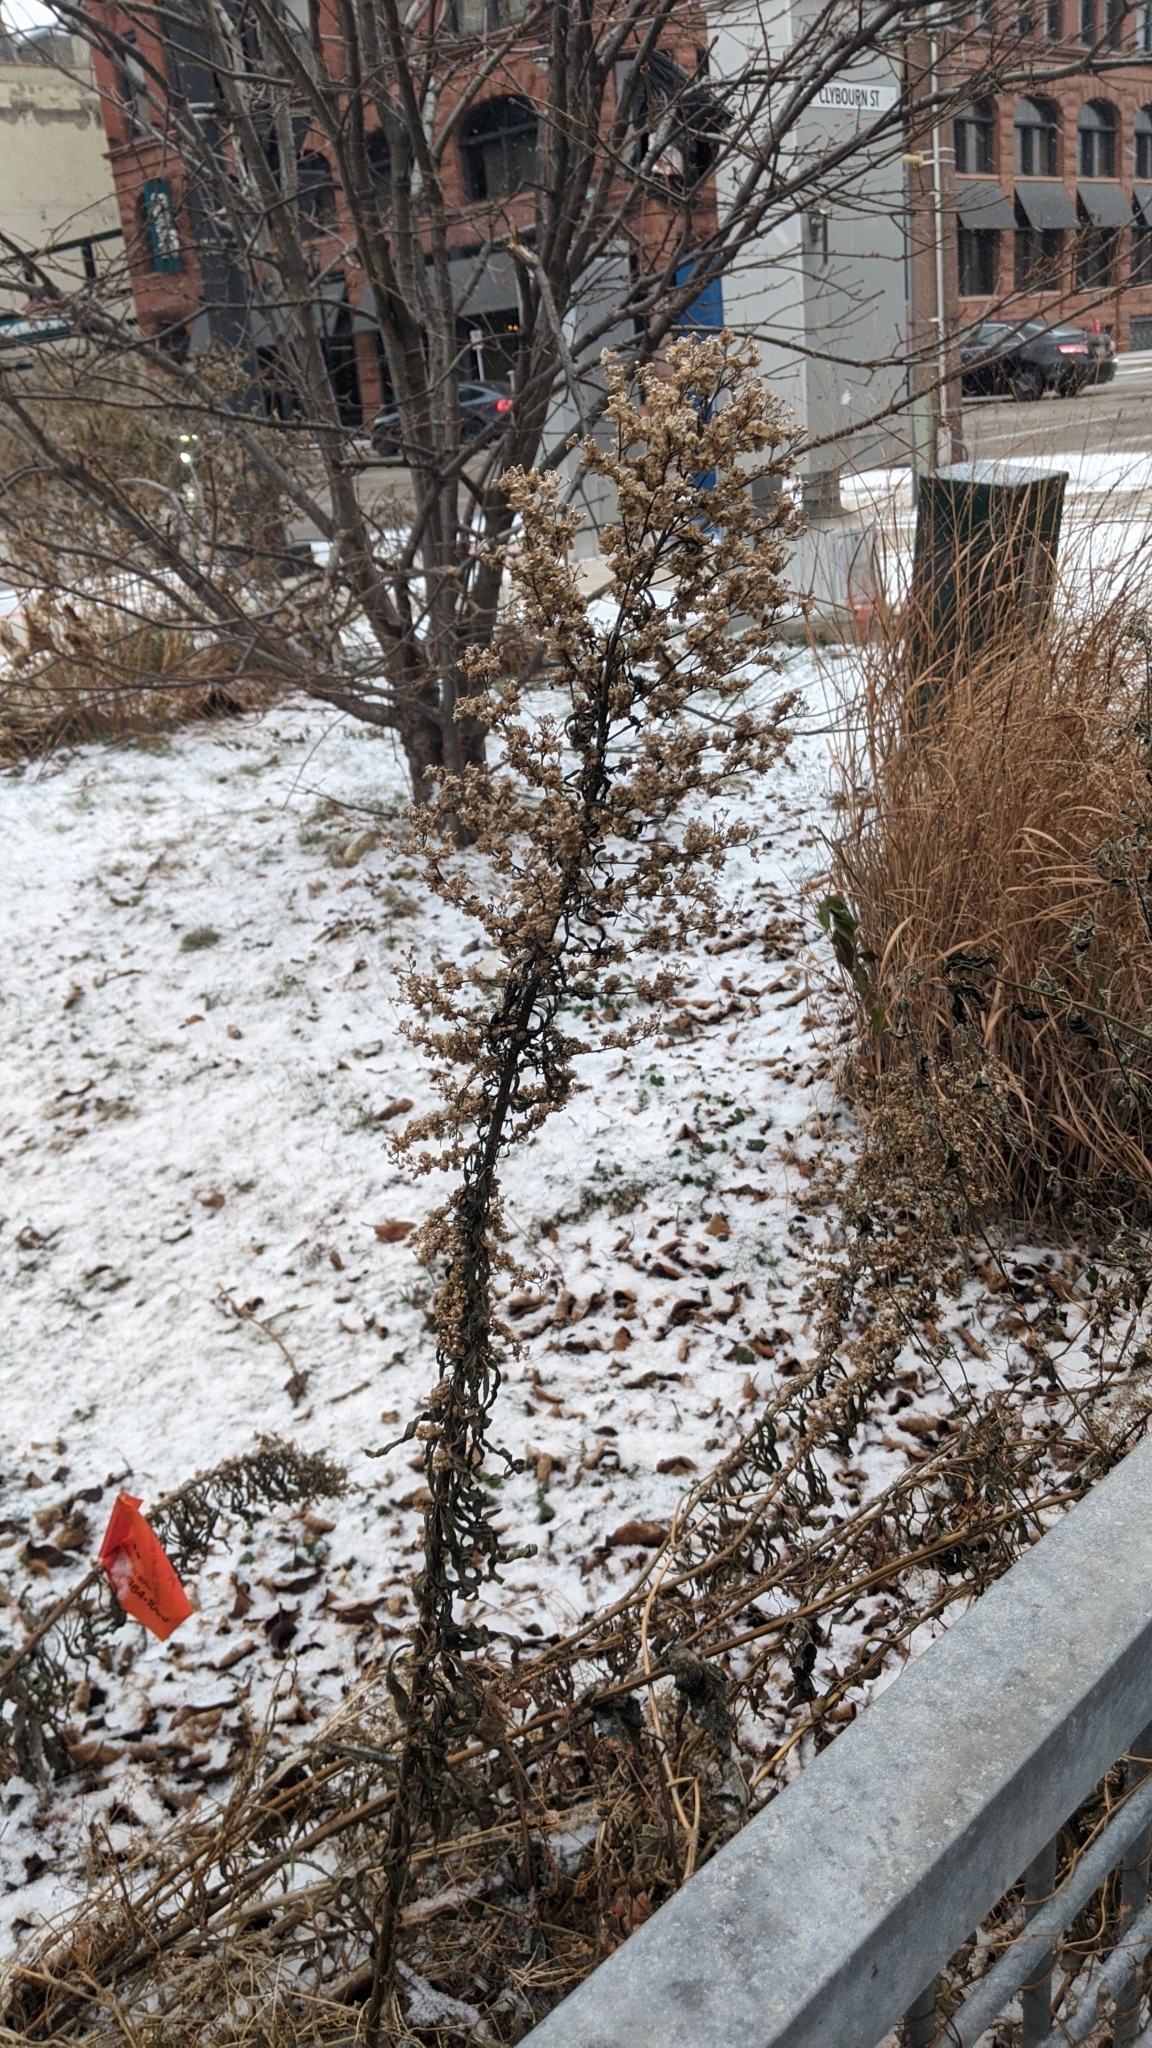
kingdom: Plantae
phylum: Tracheophyta
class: Magnoliopsida
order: Asterales
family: Asteraceae
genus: Erigeron
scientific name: Erigeron canadensis
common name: Canadian fleabane
